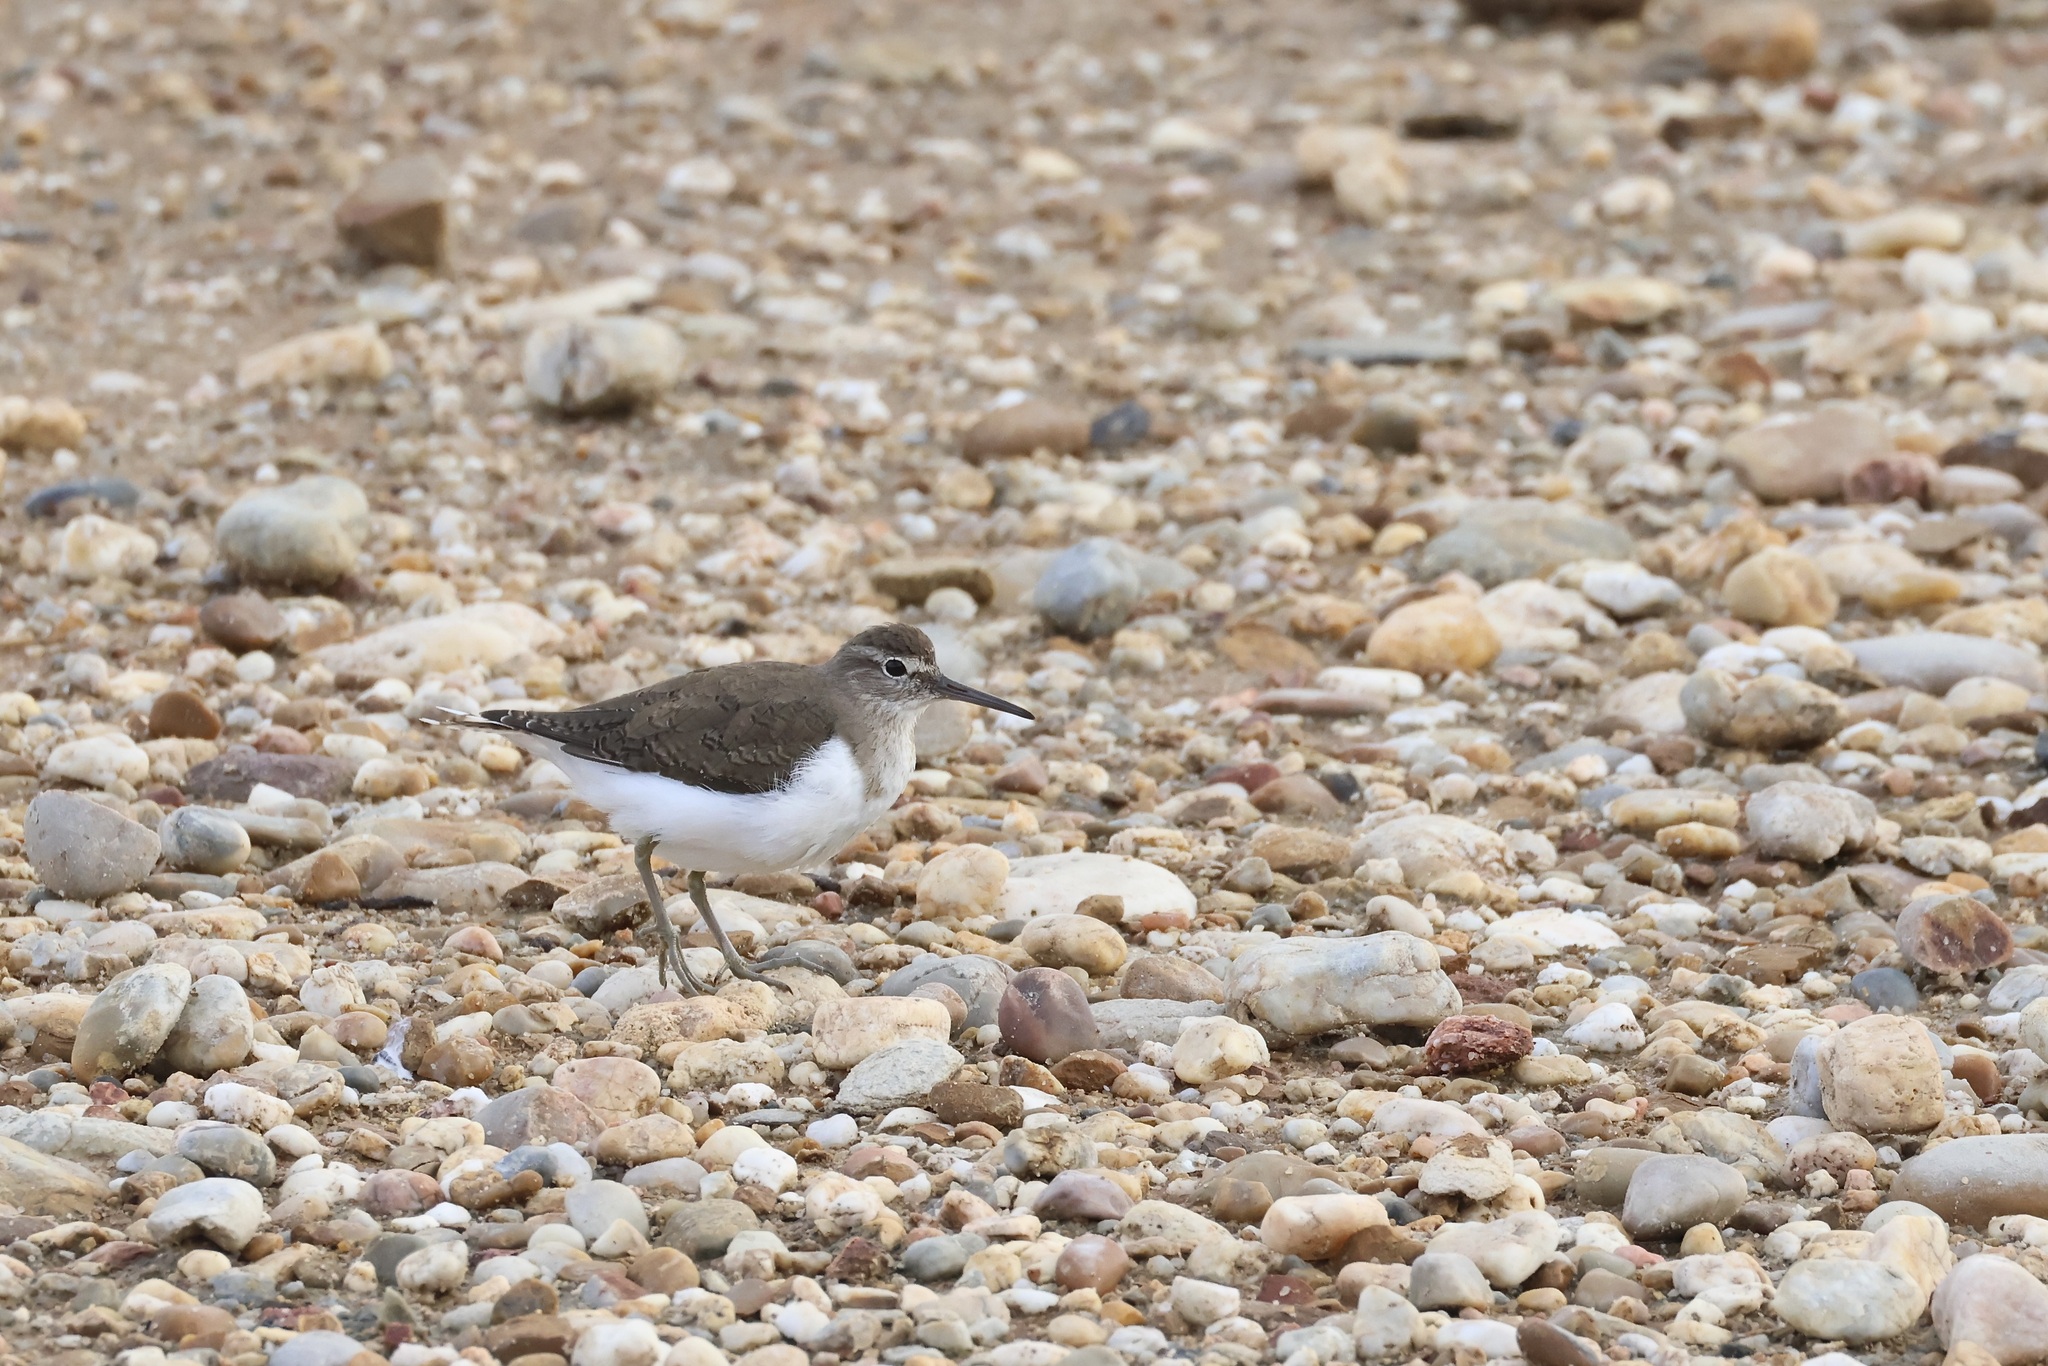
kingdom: Animalia
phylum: Chordata
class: Aves
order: Charadriiformes
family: Scolopacidae
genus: Actitis
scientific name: Actitis hypoleucos
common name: Common sandpiper
